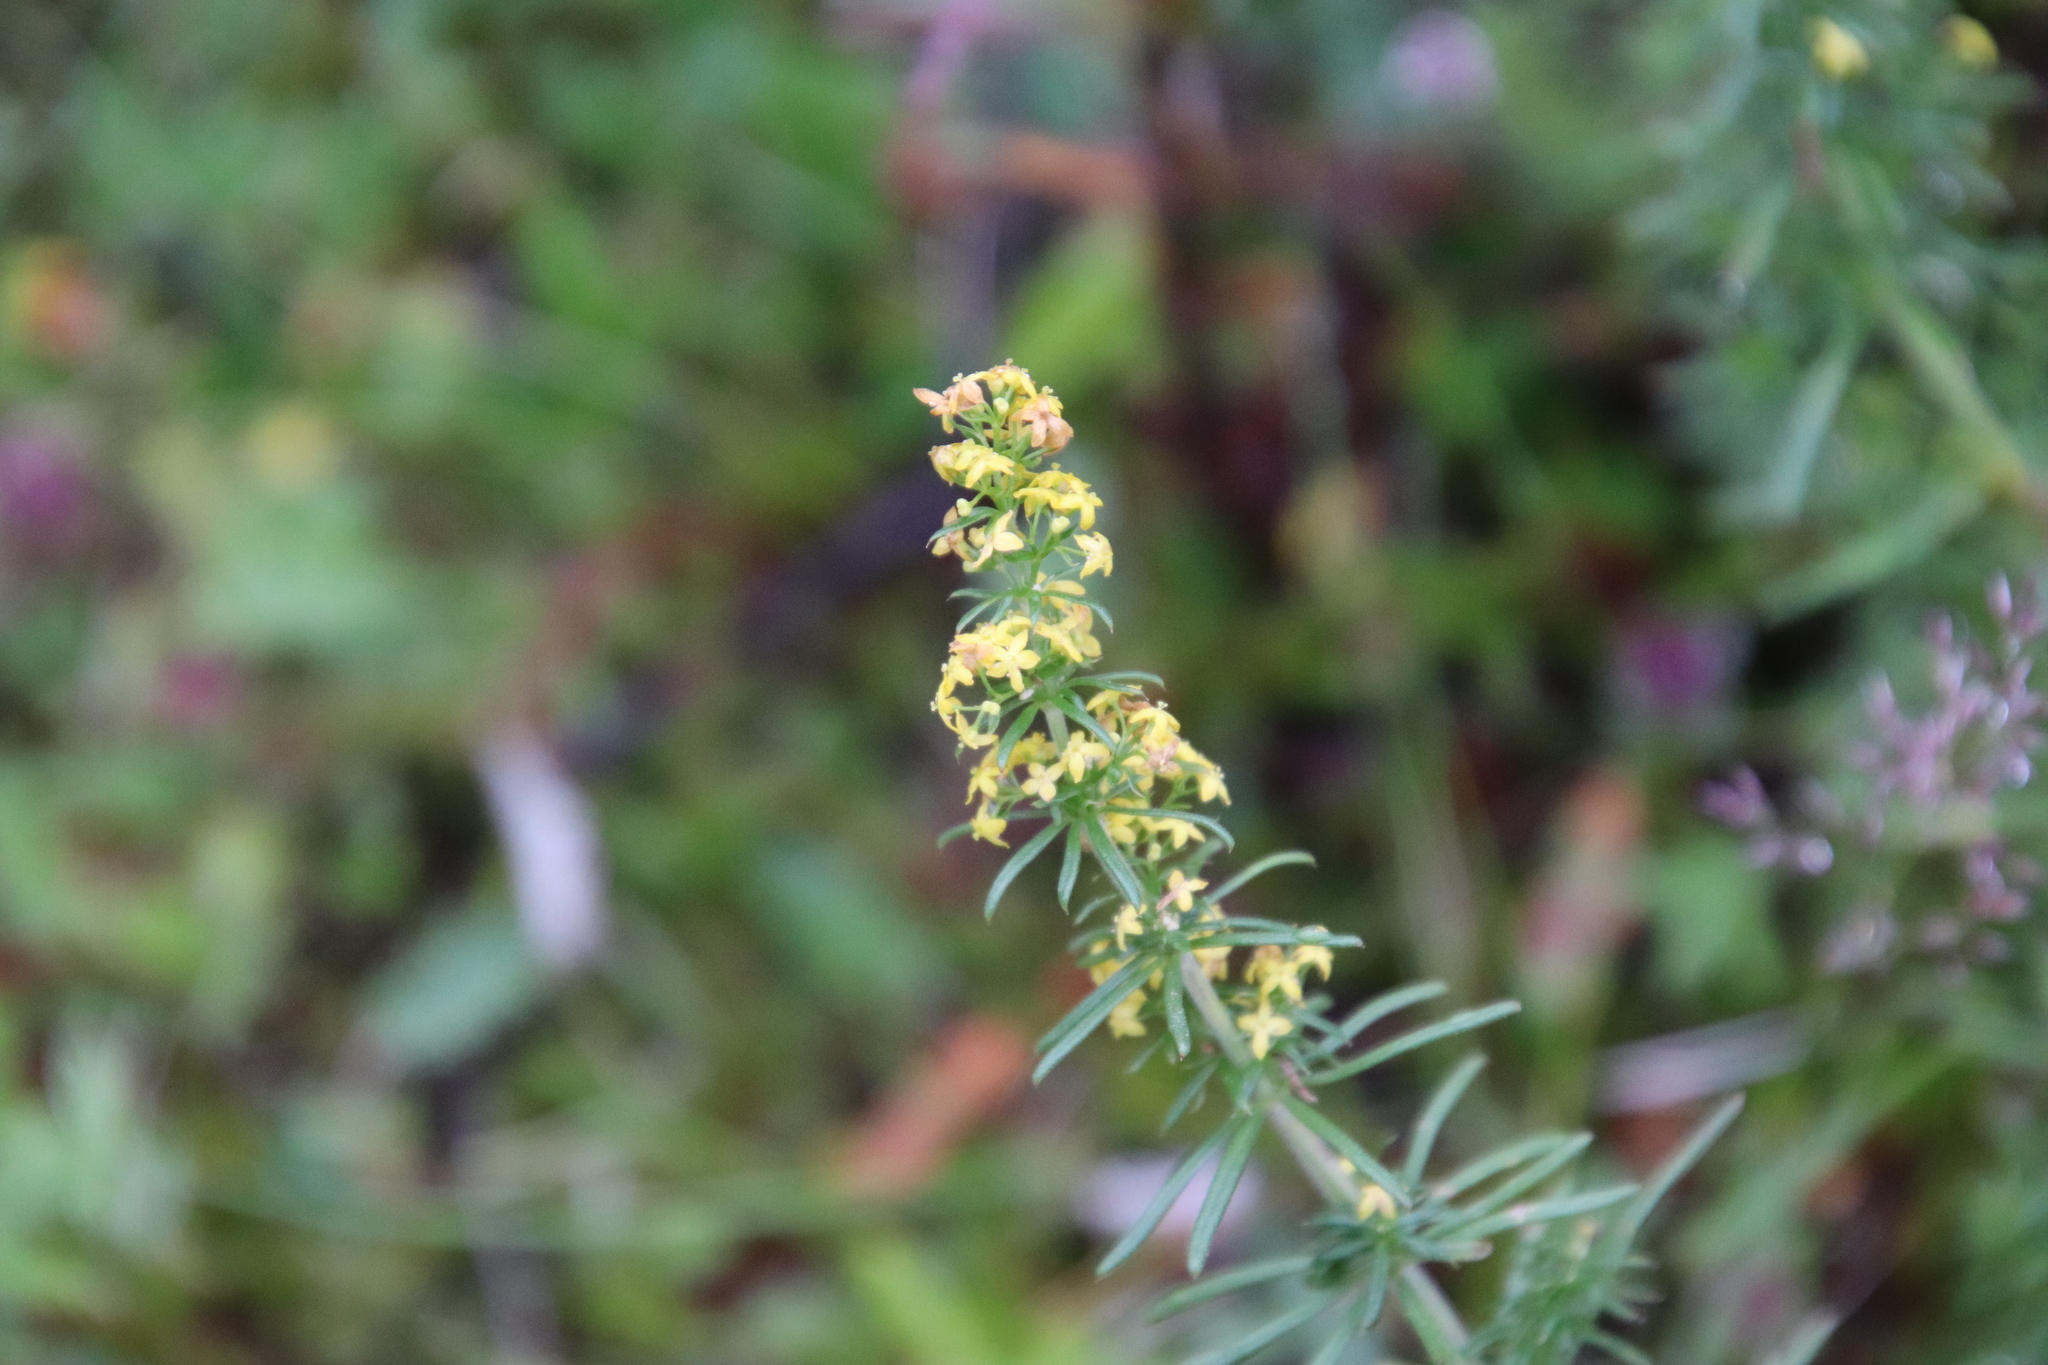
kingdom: Plantae
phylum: Tracheophyta
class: Liliopsida
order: Asparagales
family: Orchidaceae
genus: Platanthera
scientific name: Platanthera hyperborea
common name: Northern green orchid
